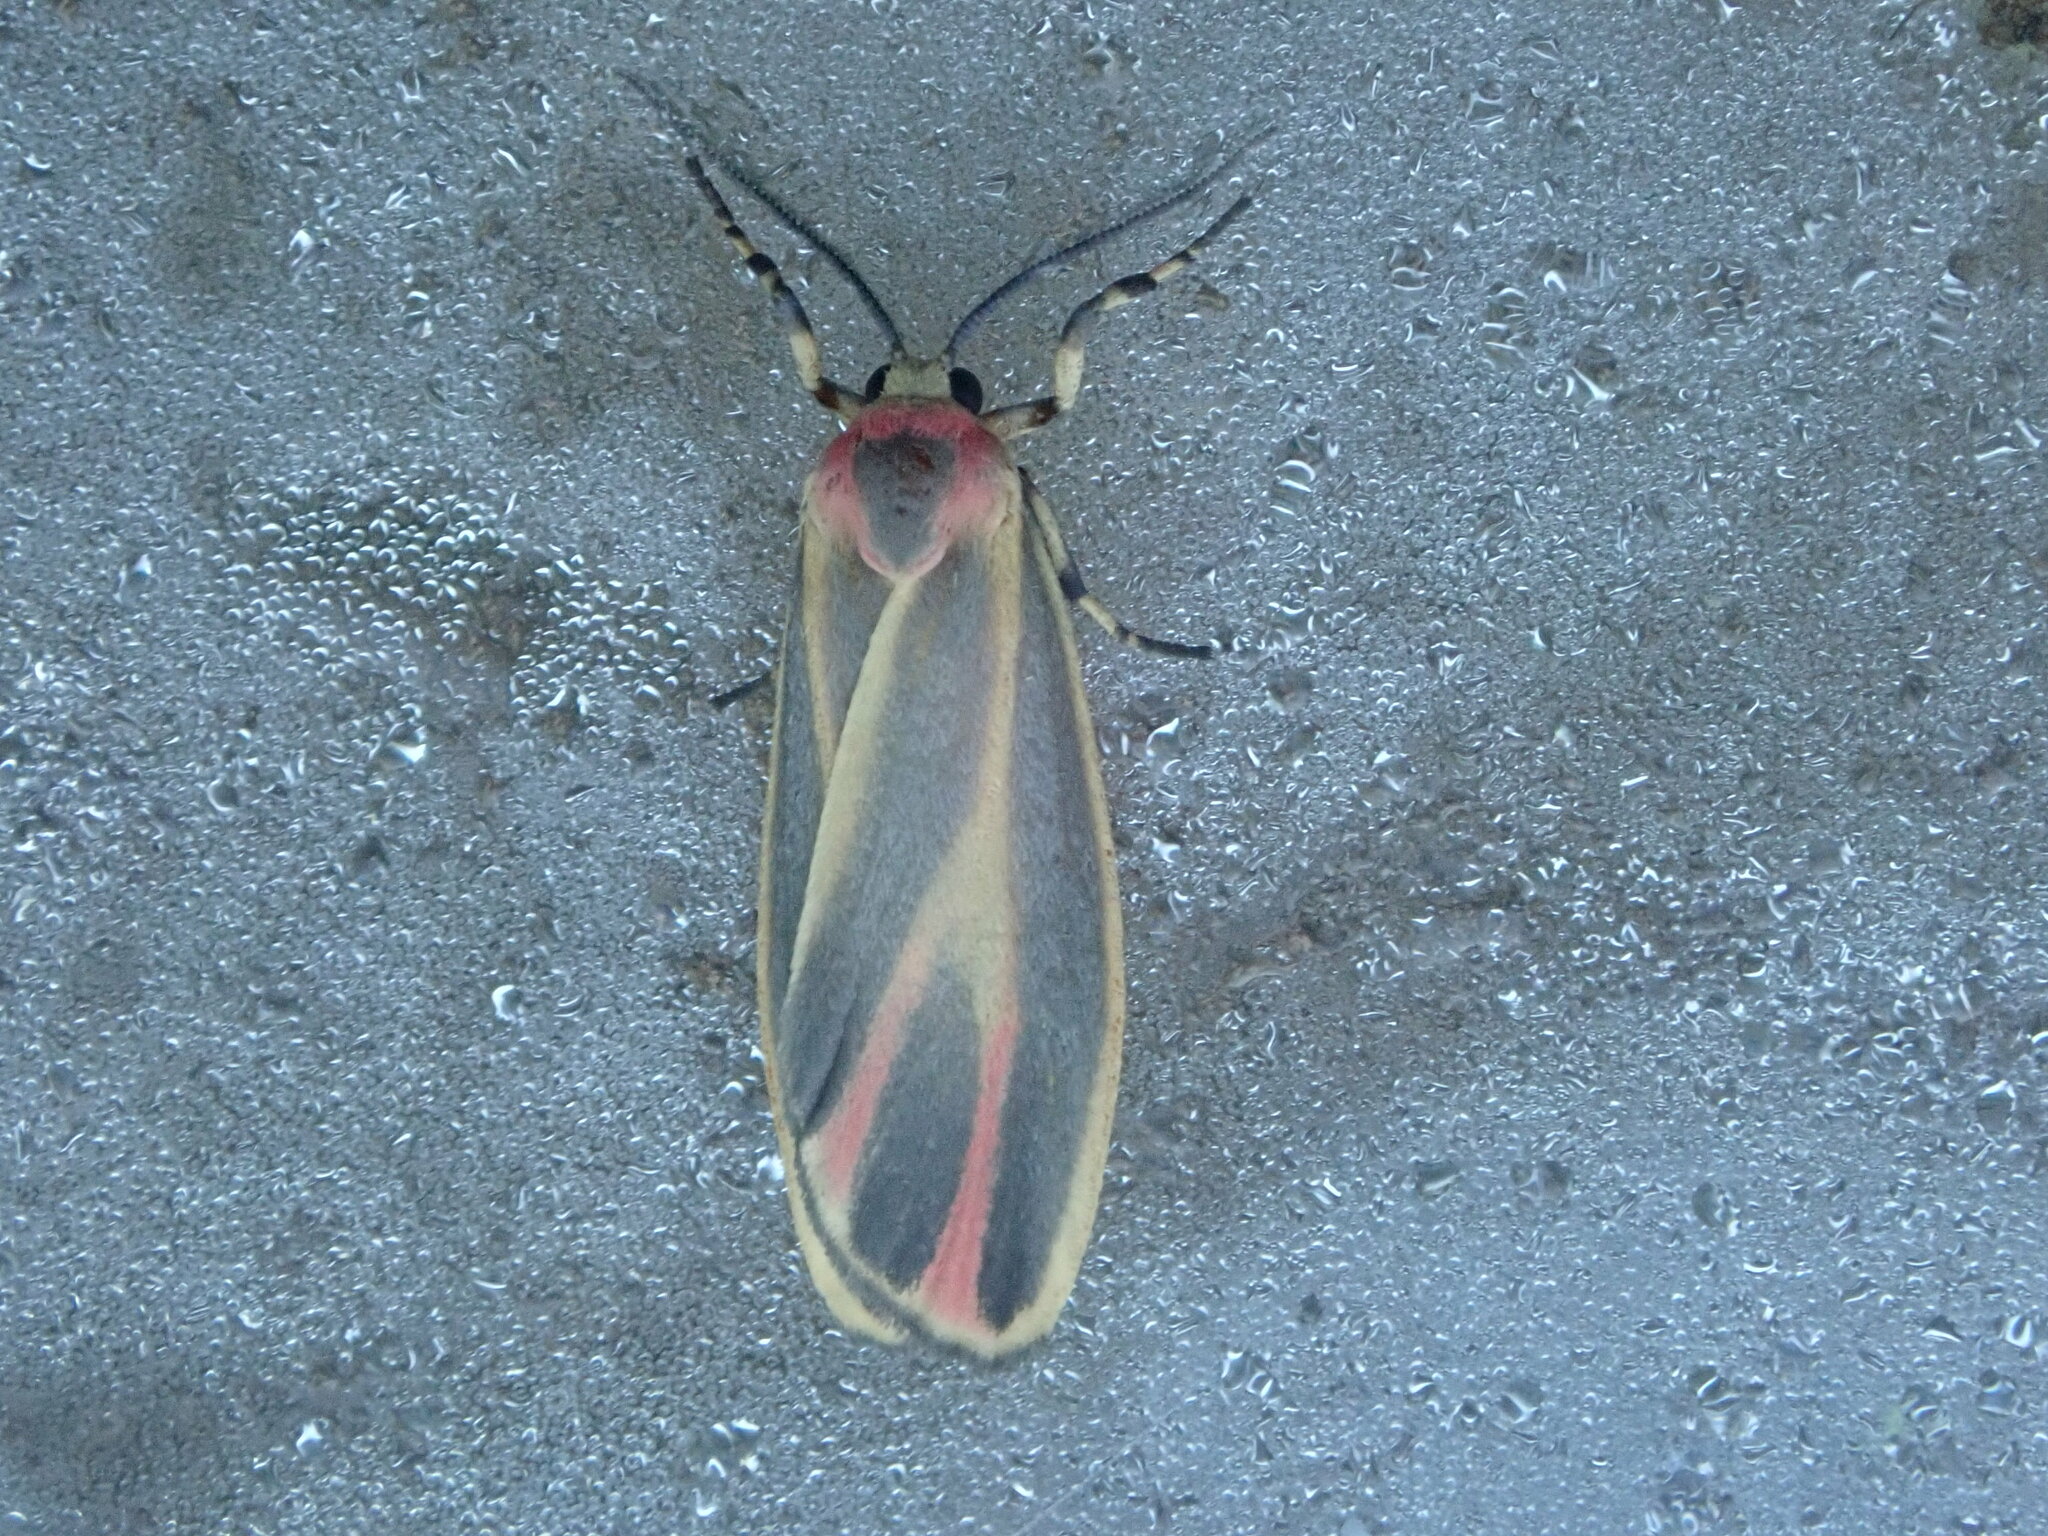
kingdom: Animalia
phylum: Arthropoda
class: Insecta
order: Lepidoptera
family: Erebidae
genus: Hypoprepia
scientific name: Hypoprepia fucosa
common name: Painted lichen moth
